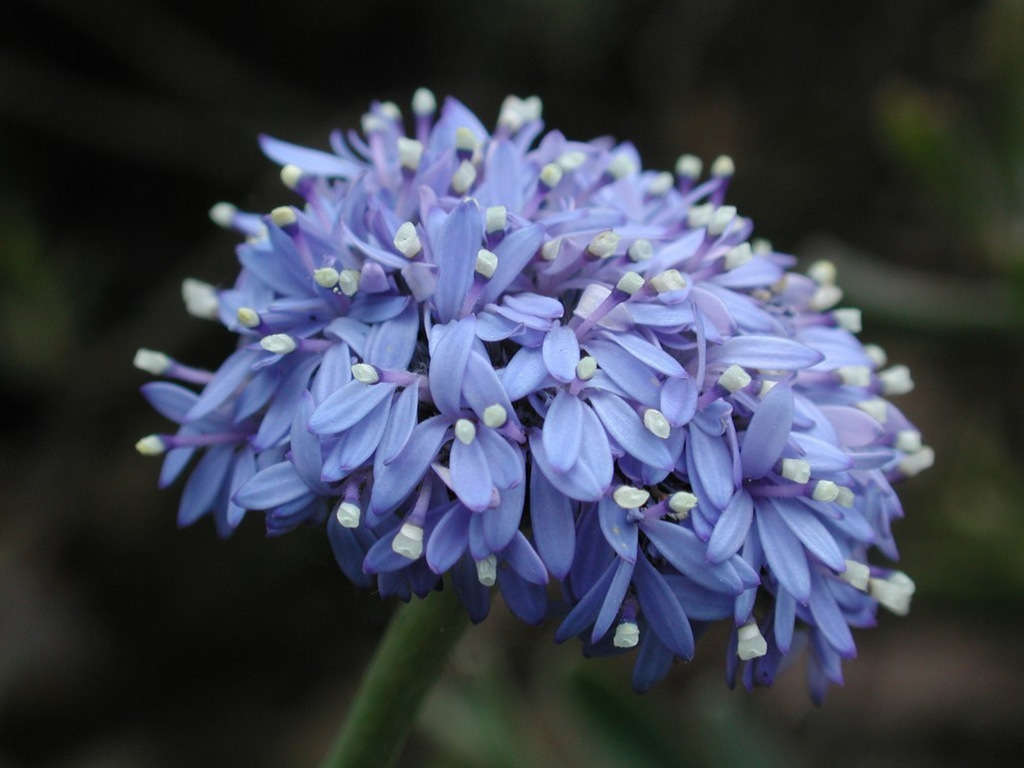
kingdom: Plantae
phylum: Tracheophyta
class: Magnoliopsida
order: Asterales
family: Goodeniaceae
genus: Brunonia
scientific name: Brunonia australis
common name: Blue pincushion
